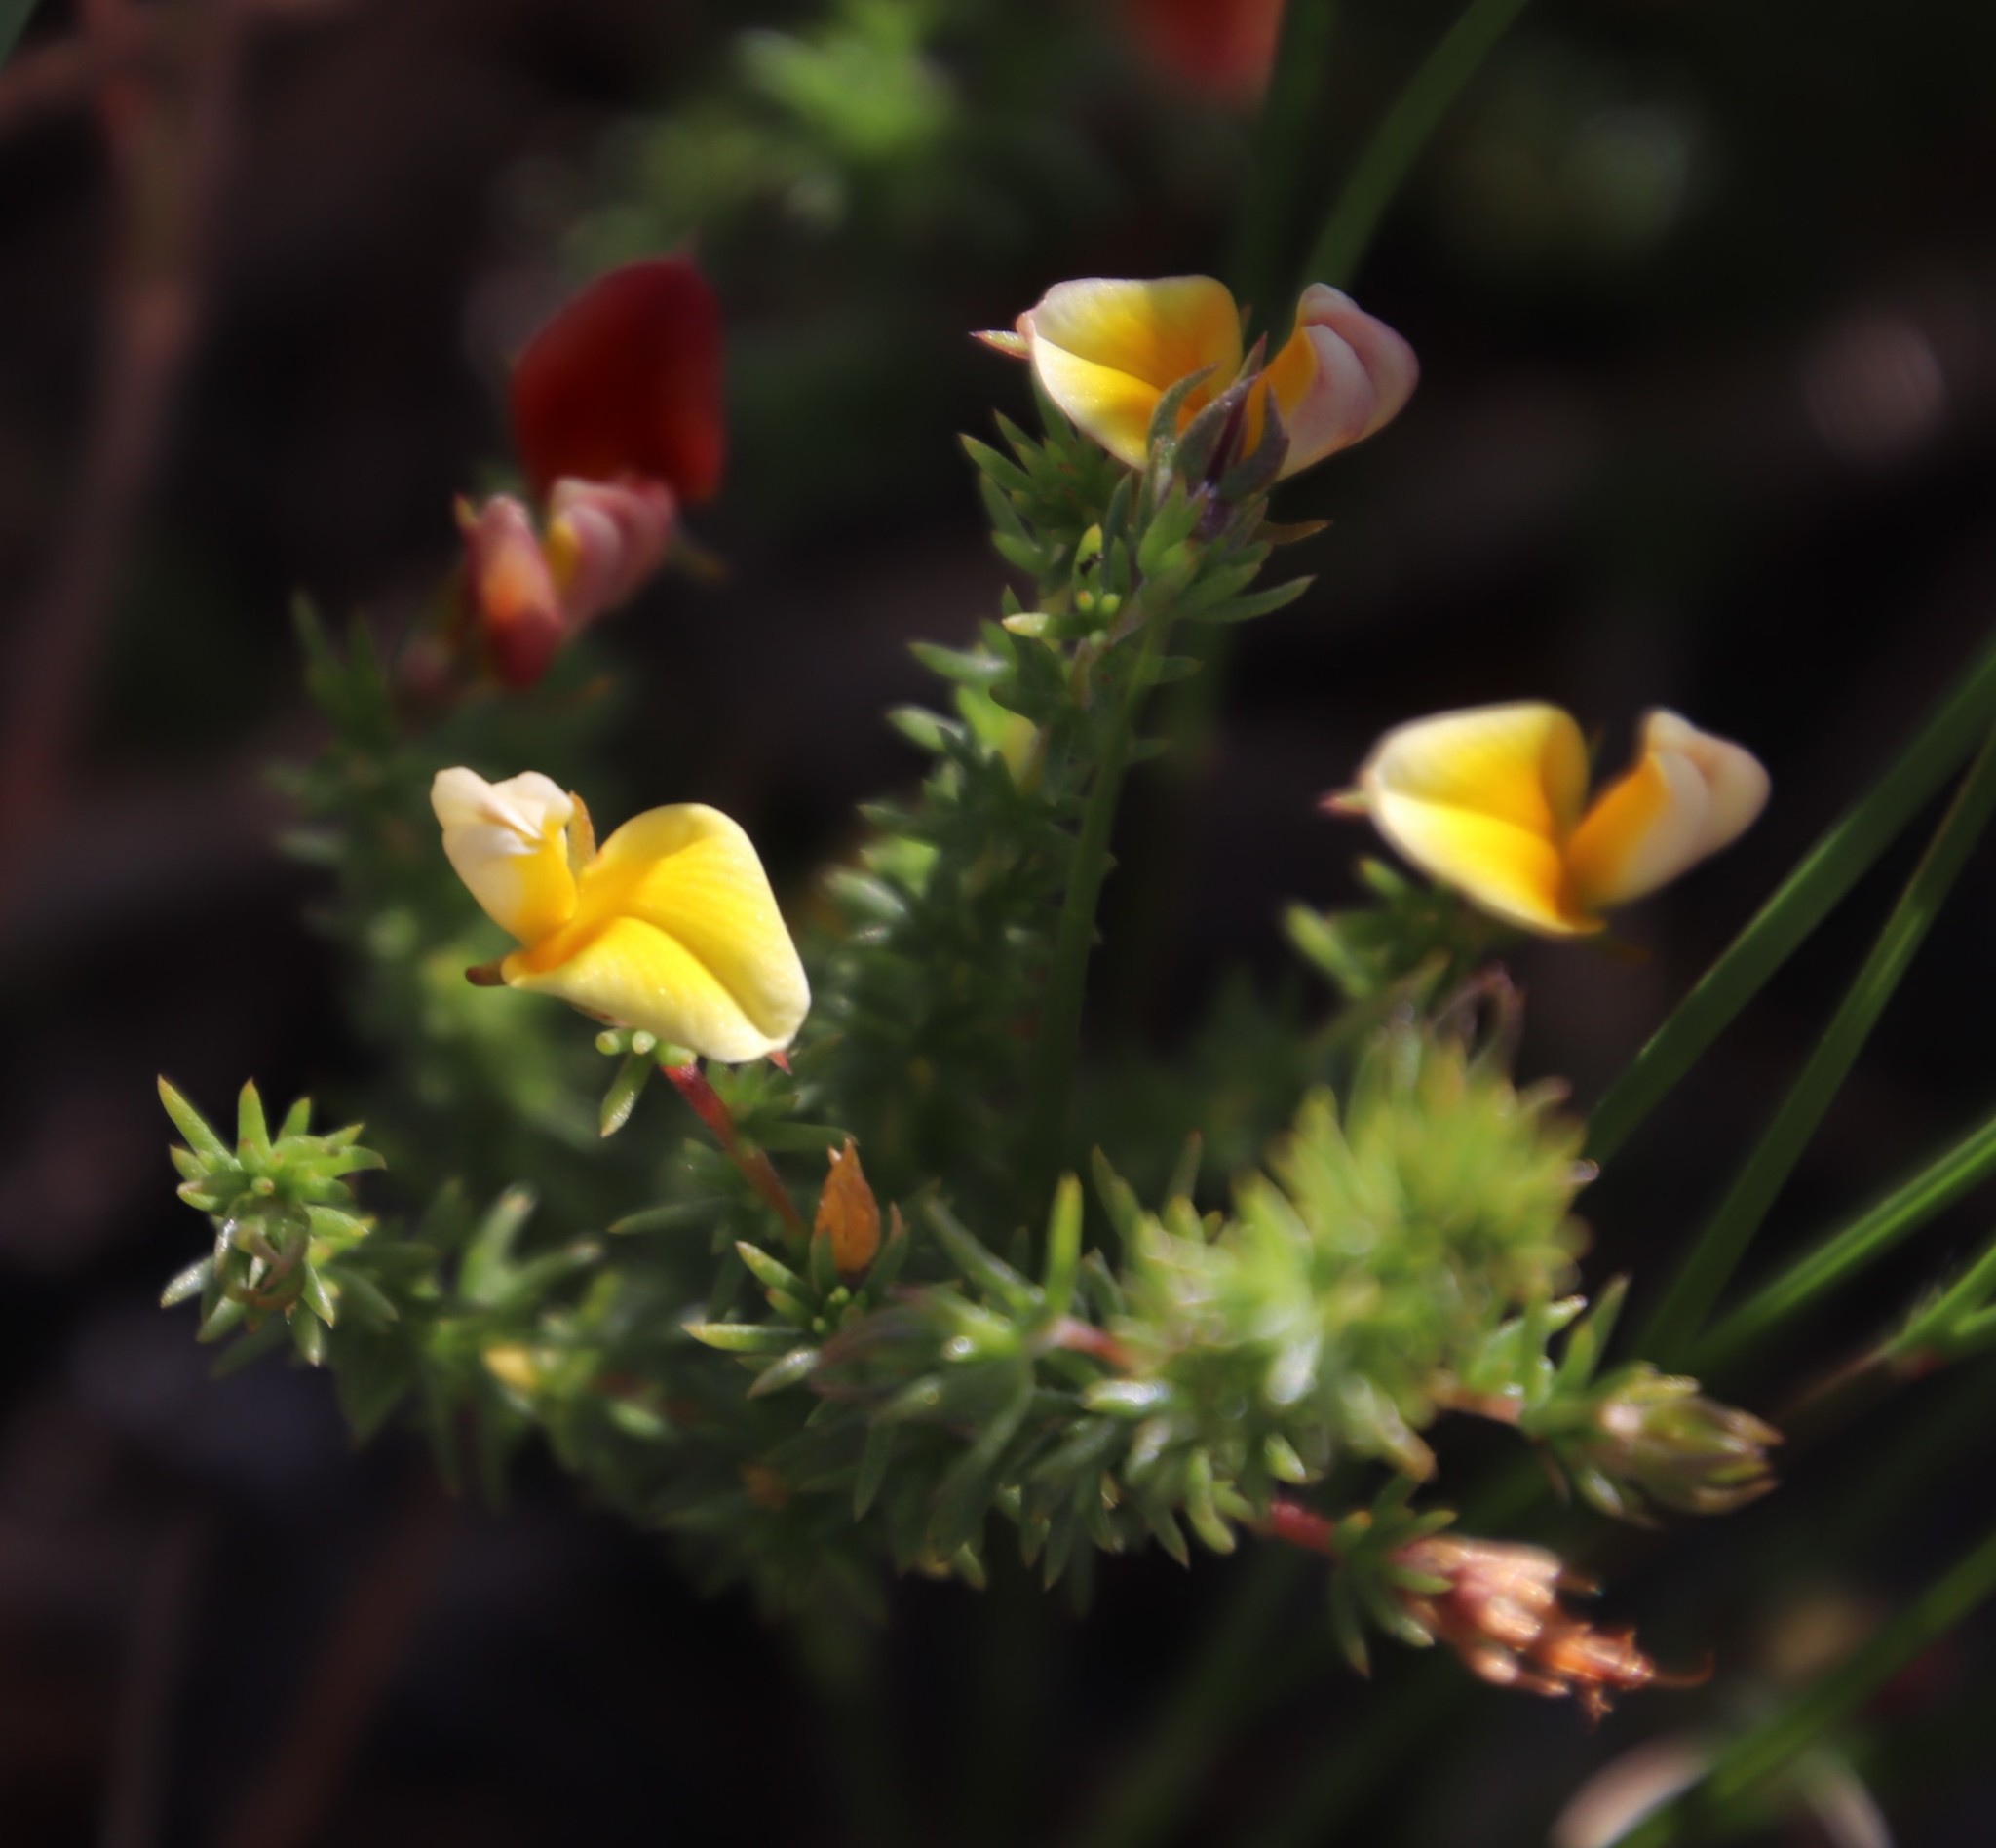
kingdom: Plantae
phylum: Tracheophyta
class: Magnoliopsida
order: Fabales
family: Fabaceae
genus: Aspalathus
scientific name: Aspalathus retroflexa
